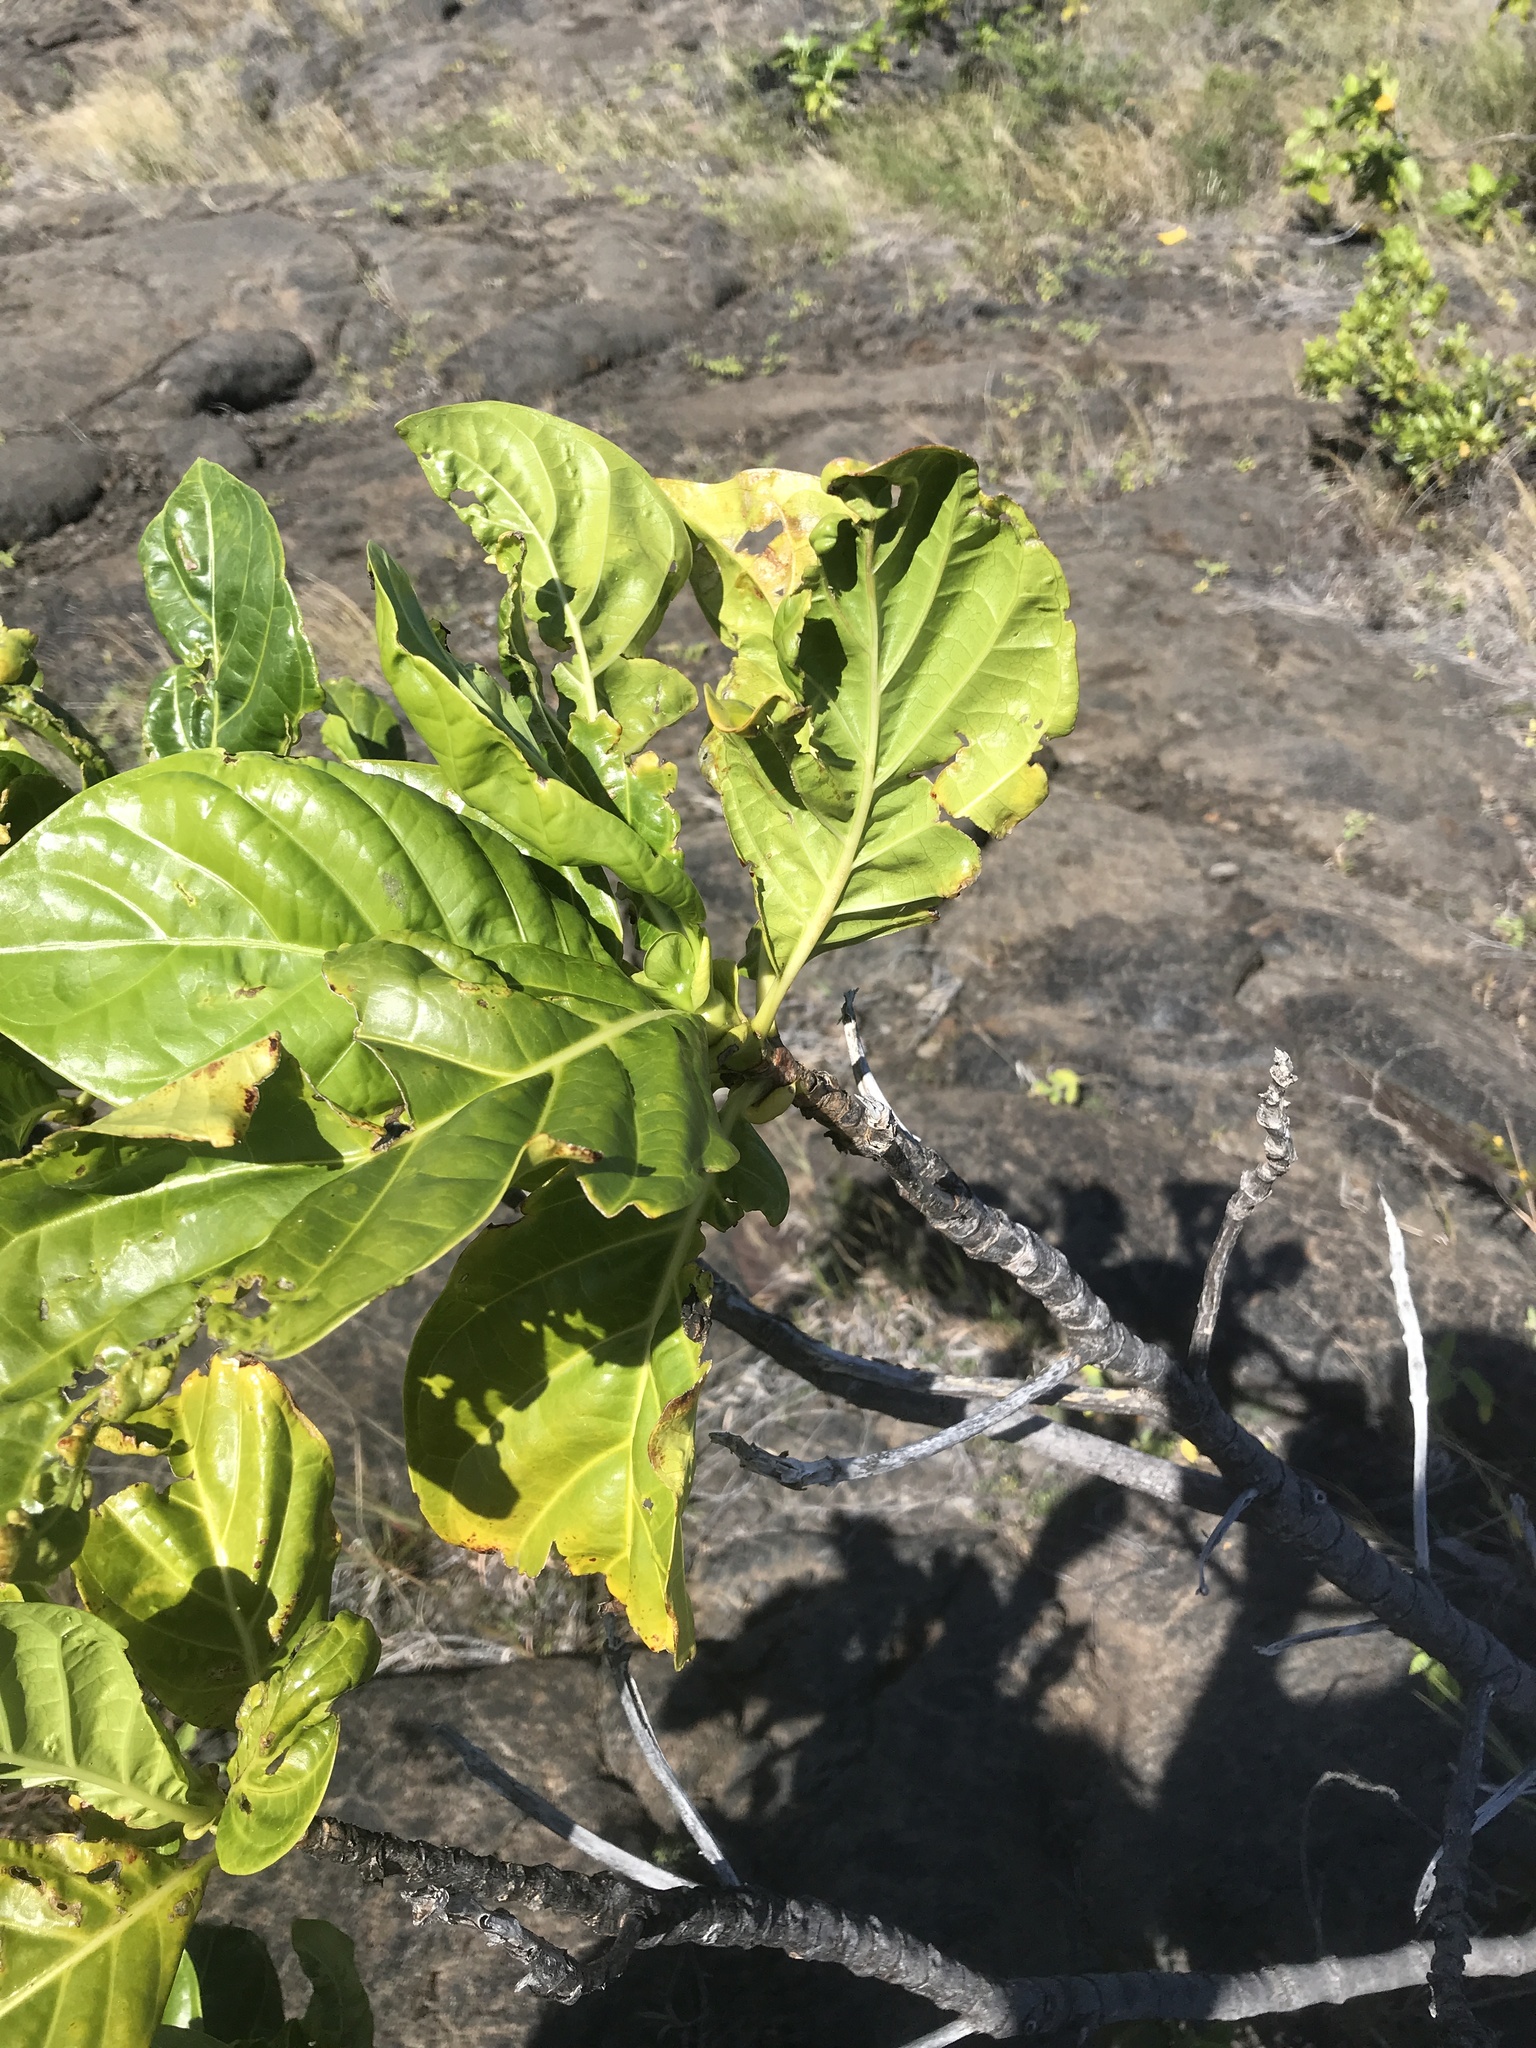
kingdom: Plantae
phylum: Tracheophyta
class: Magnoliopsida
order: Gentianales
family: Rubiaceae
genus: Morinda
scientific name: Morinda citrifolia
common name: Indian-mulberry
